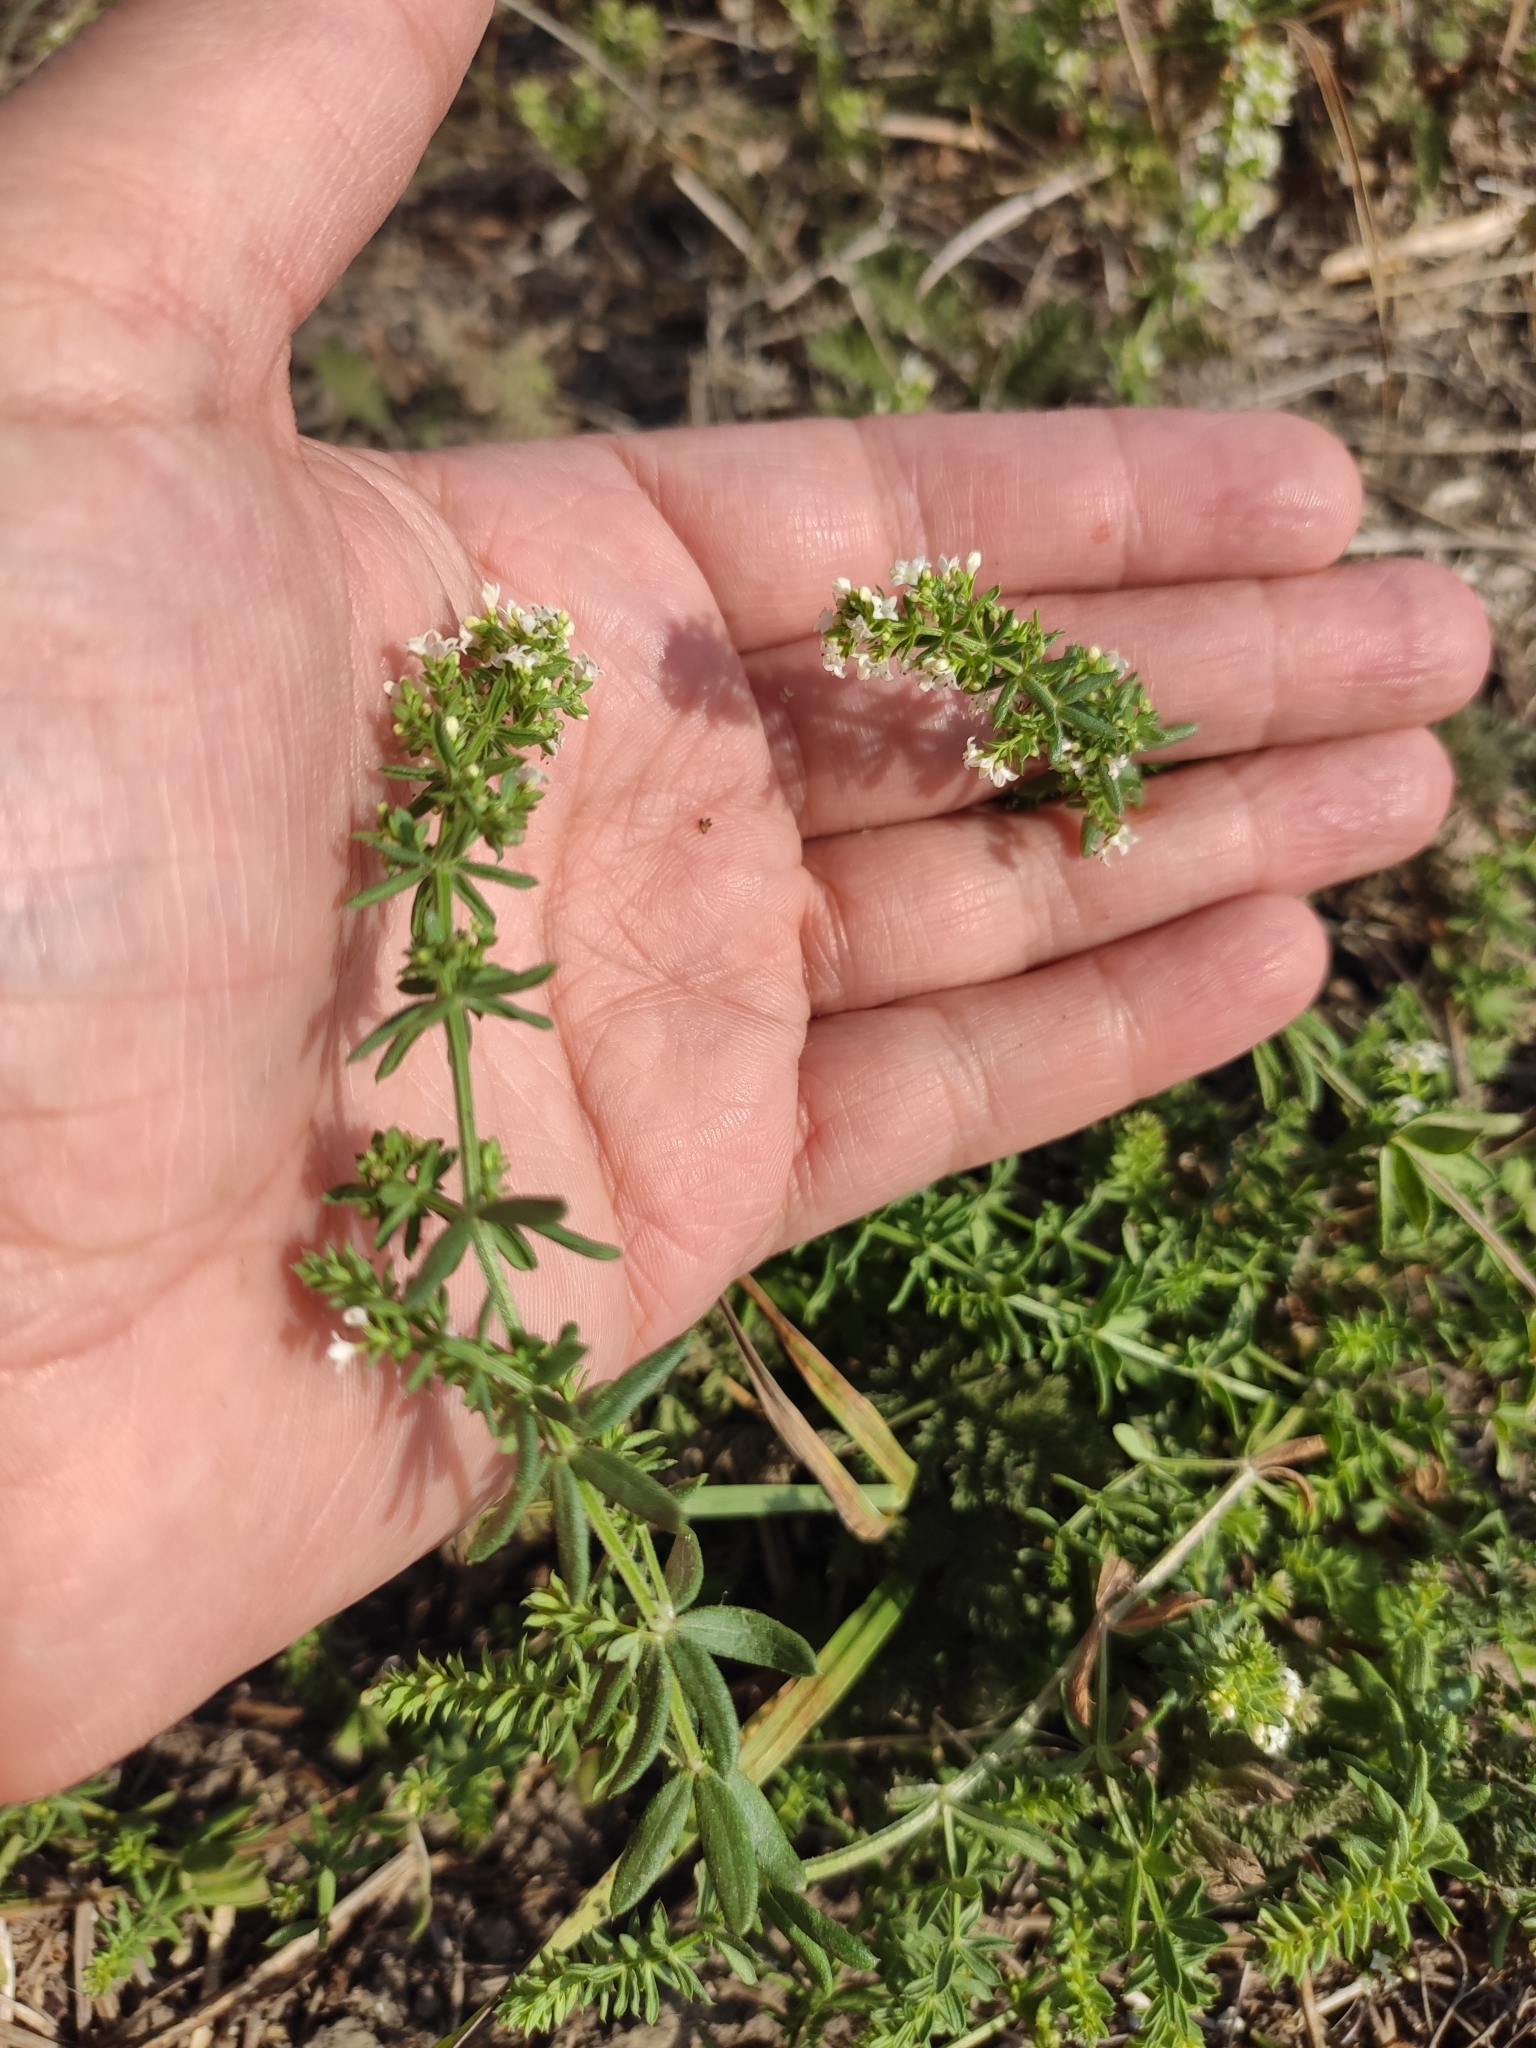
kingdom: Plantae
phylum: Tracheophyta
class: Magnoliopsida
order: Gentianales
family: Rubiaceae
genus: Galium
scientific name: Galium humifusum
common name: Spreading bedstraw
